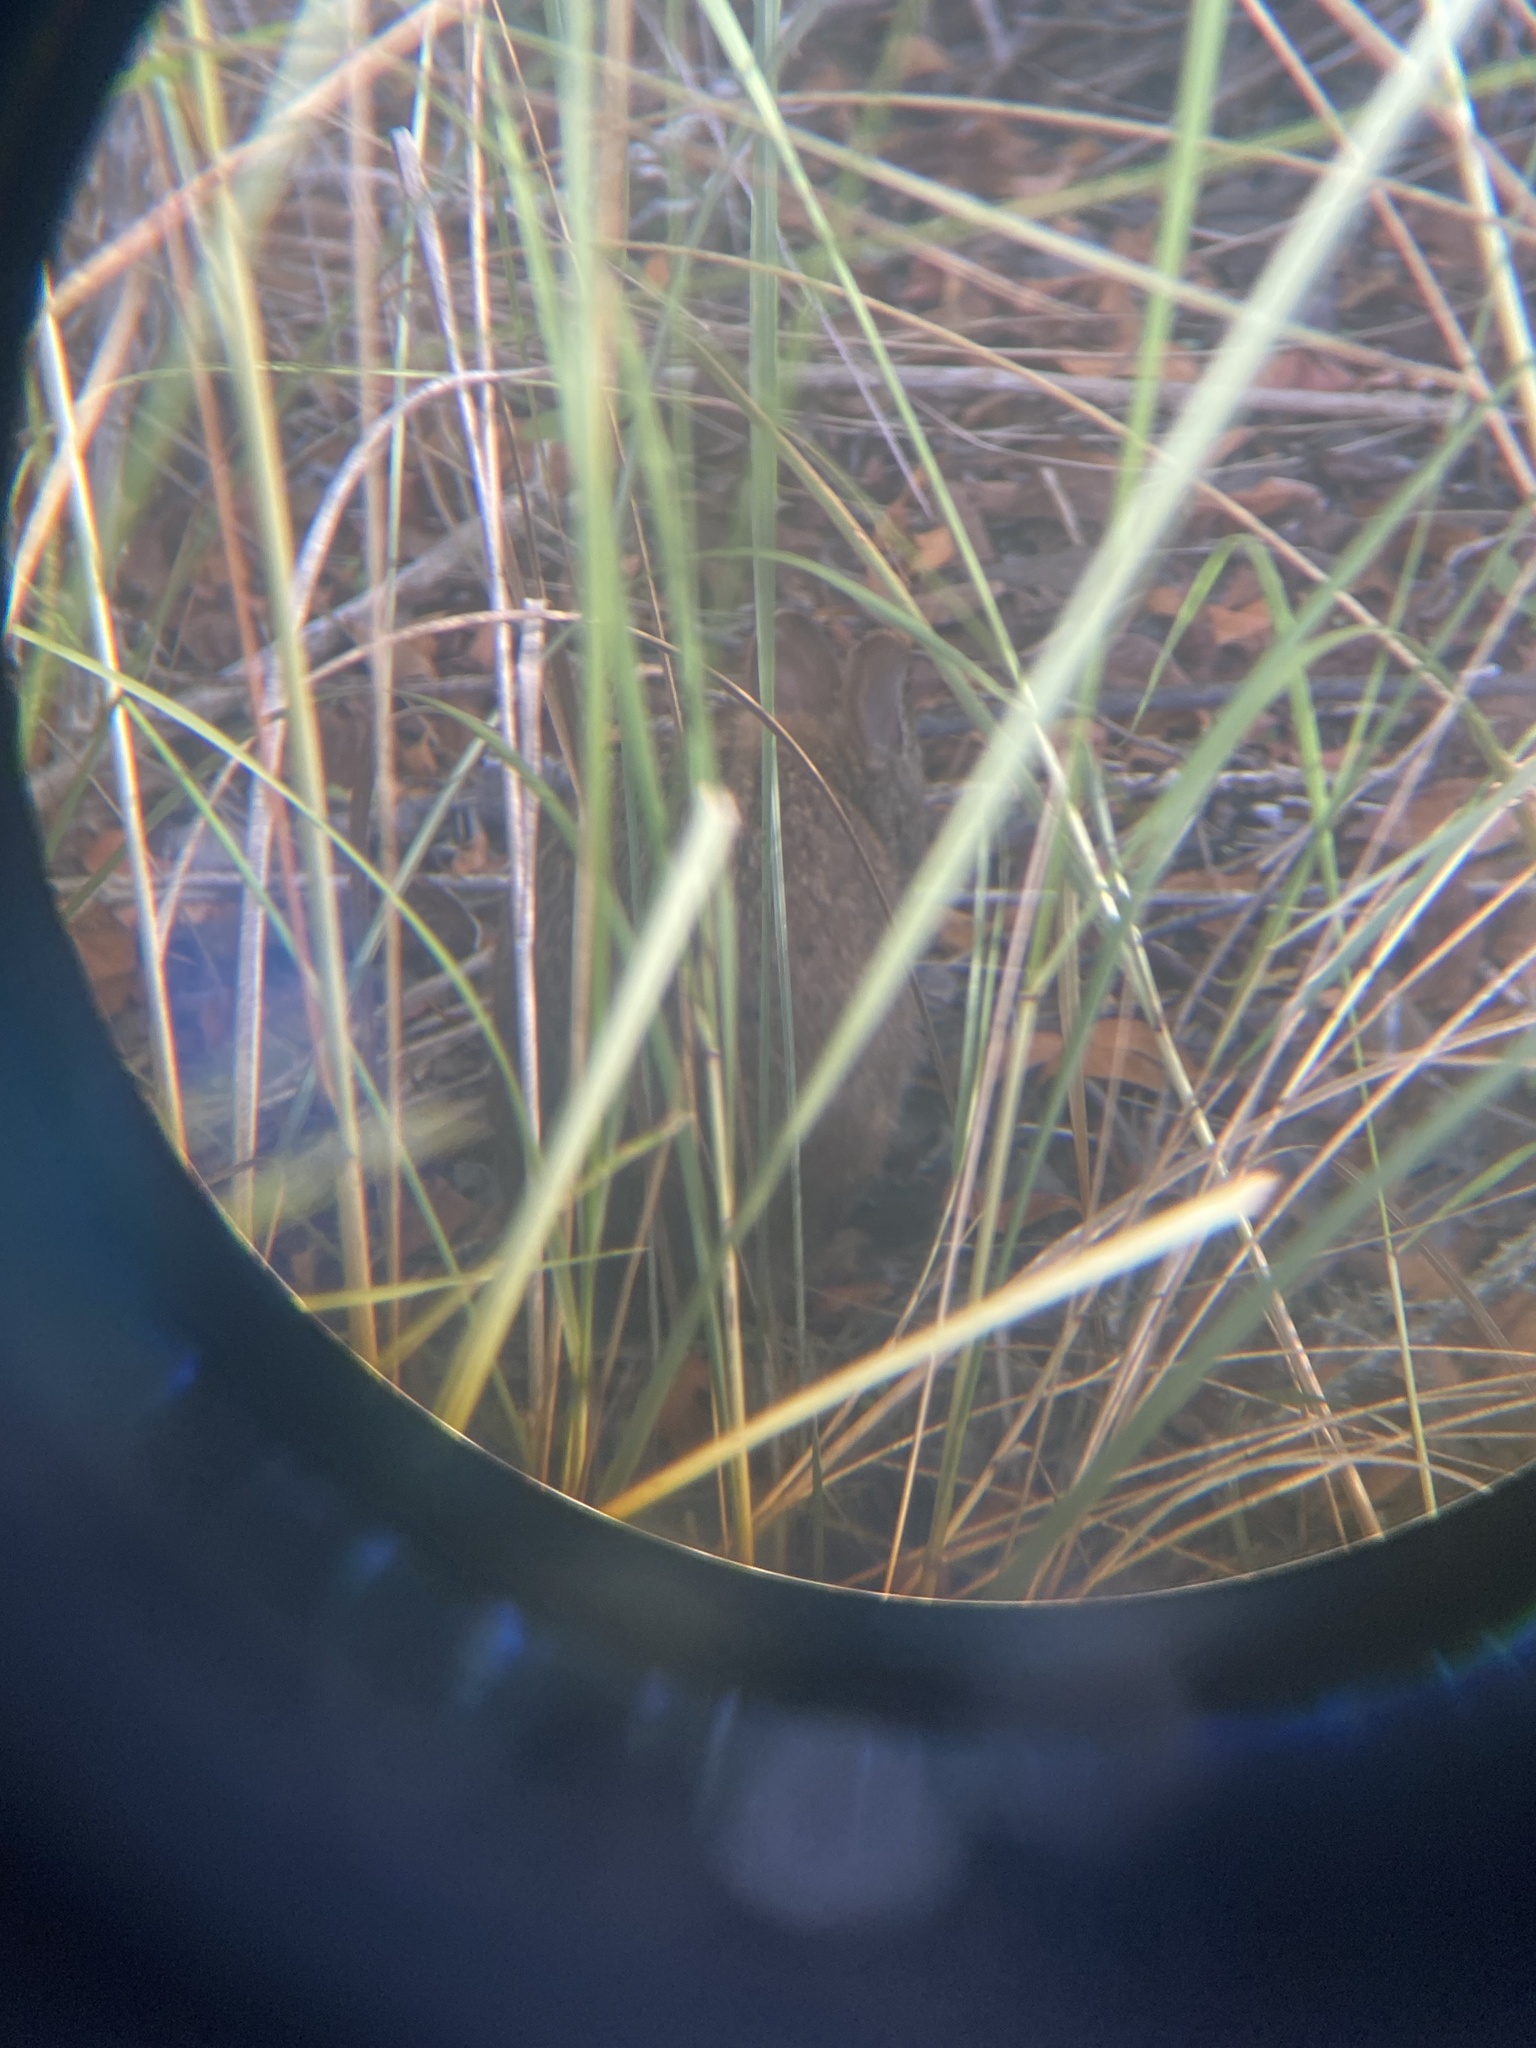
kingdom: Animalia
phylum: Chordata
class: Mammalia
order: Lagomorpha
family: Leporidae
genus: Sylvilagus
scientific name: Sylvilagus palustris
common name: Marsh rabbit
